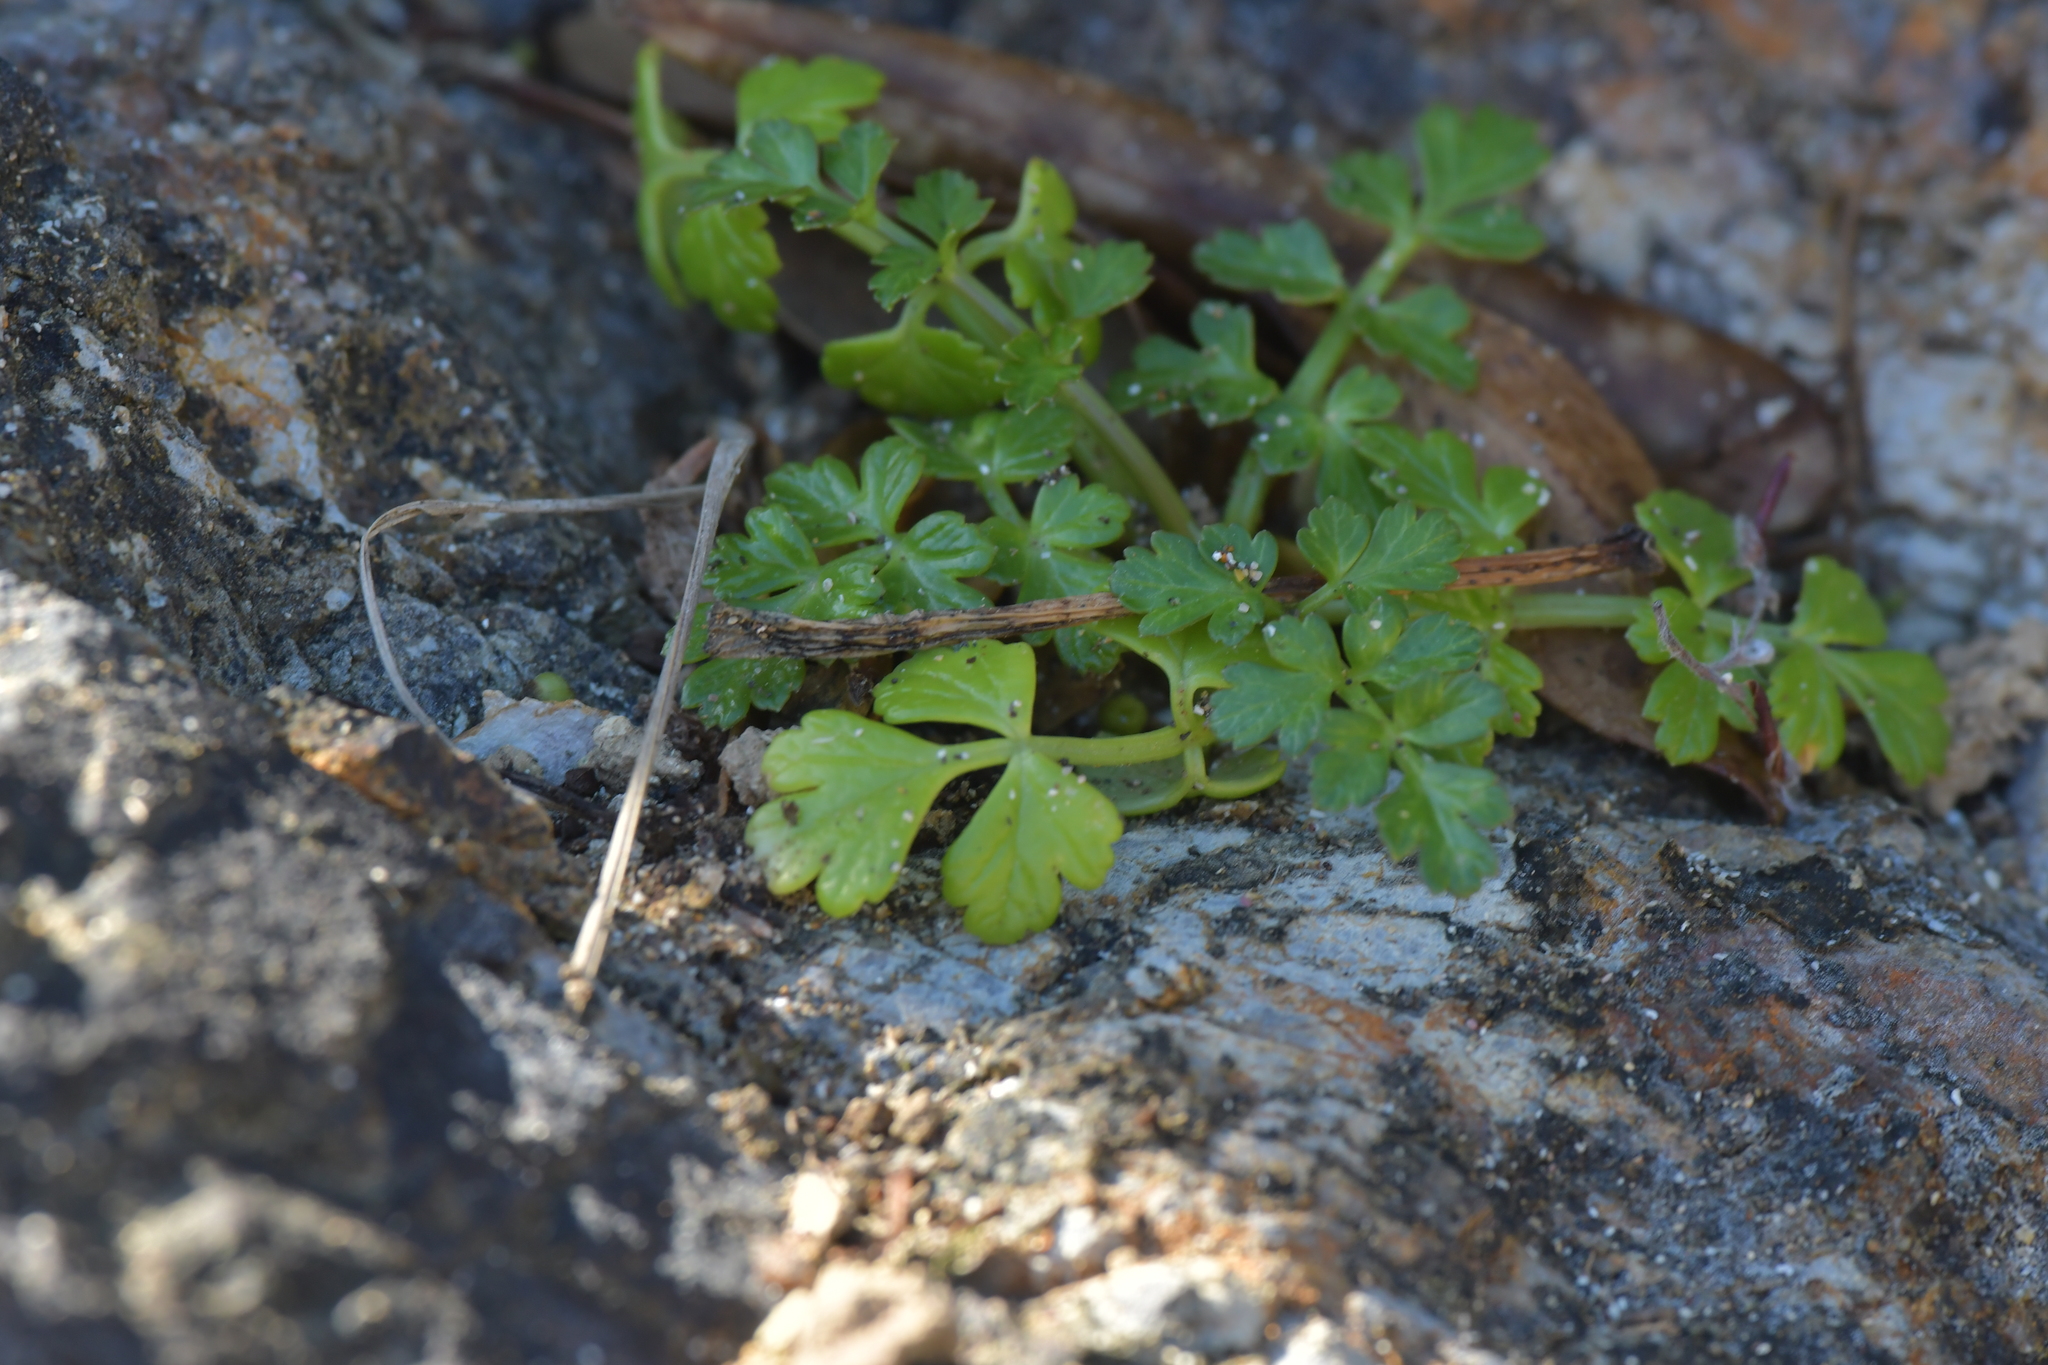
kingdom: Plantae
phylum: Tracheophyta
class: Magnoliopsida
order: Apiales
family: Apiaceae
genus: Apium
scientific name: Apium prostratum
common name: Prostrate marshwort
